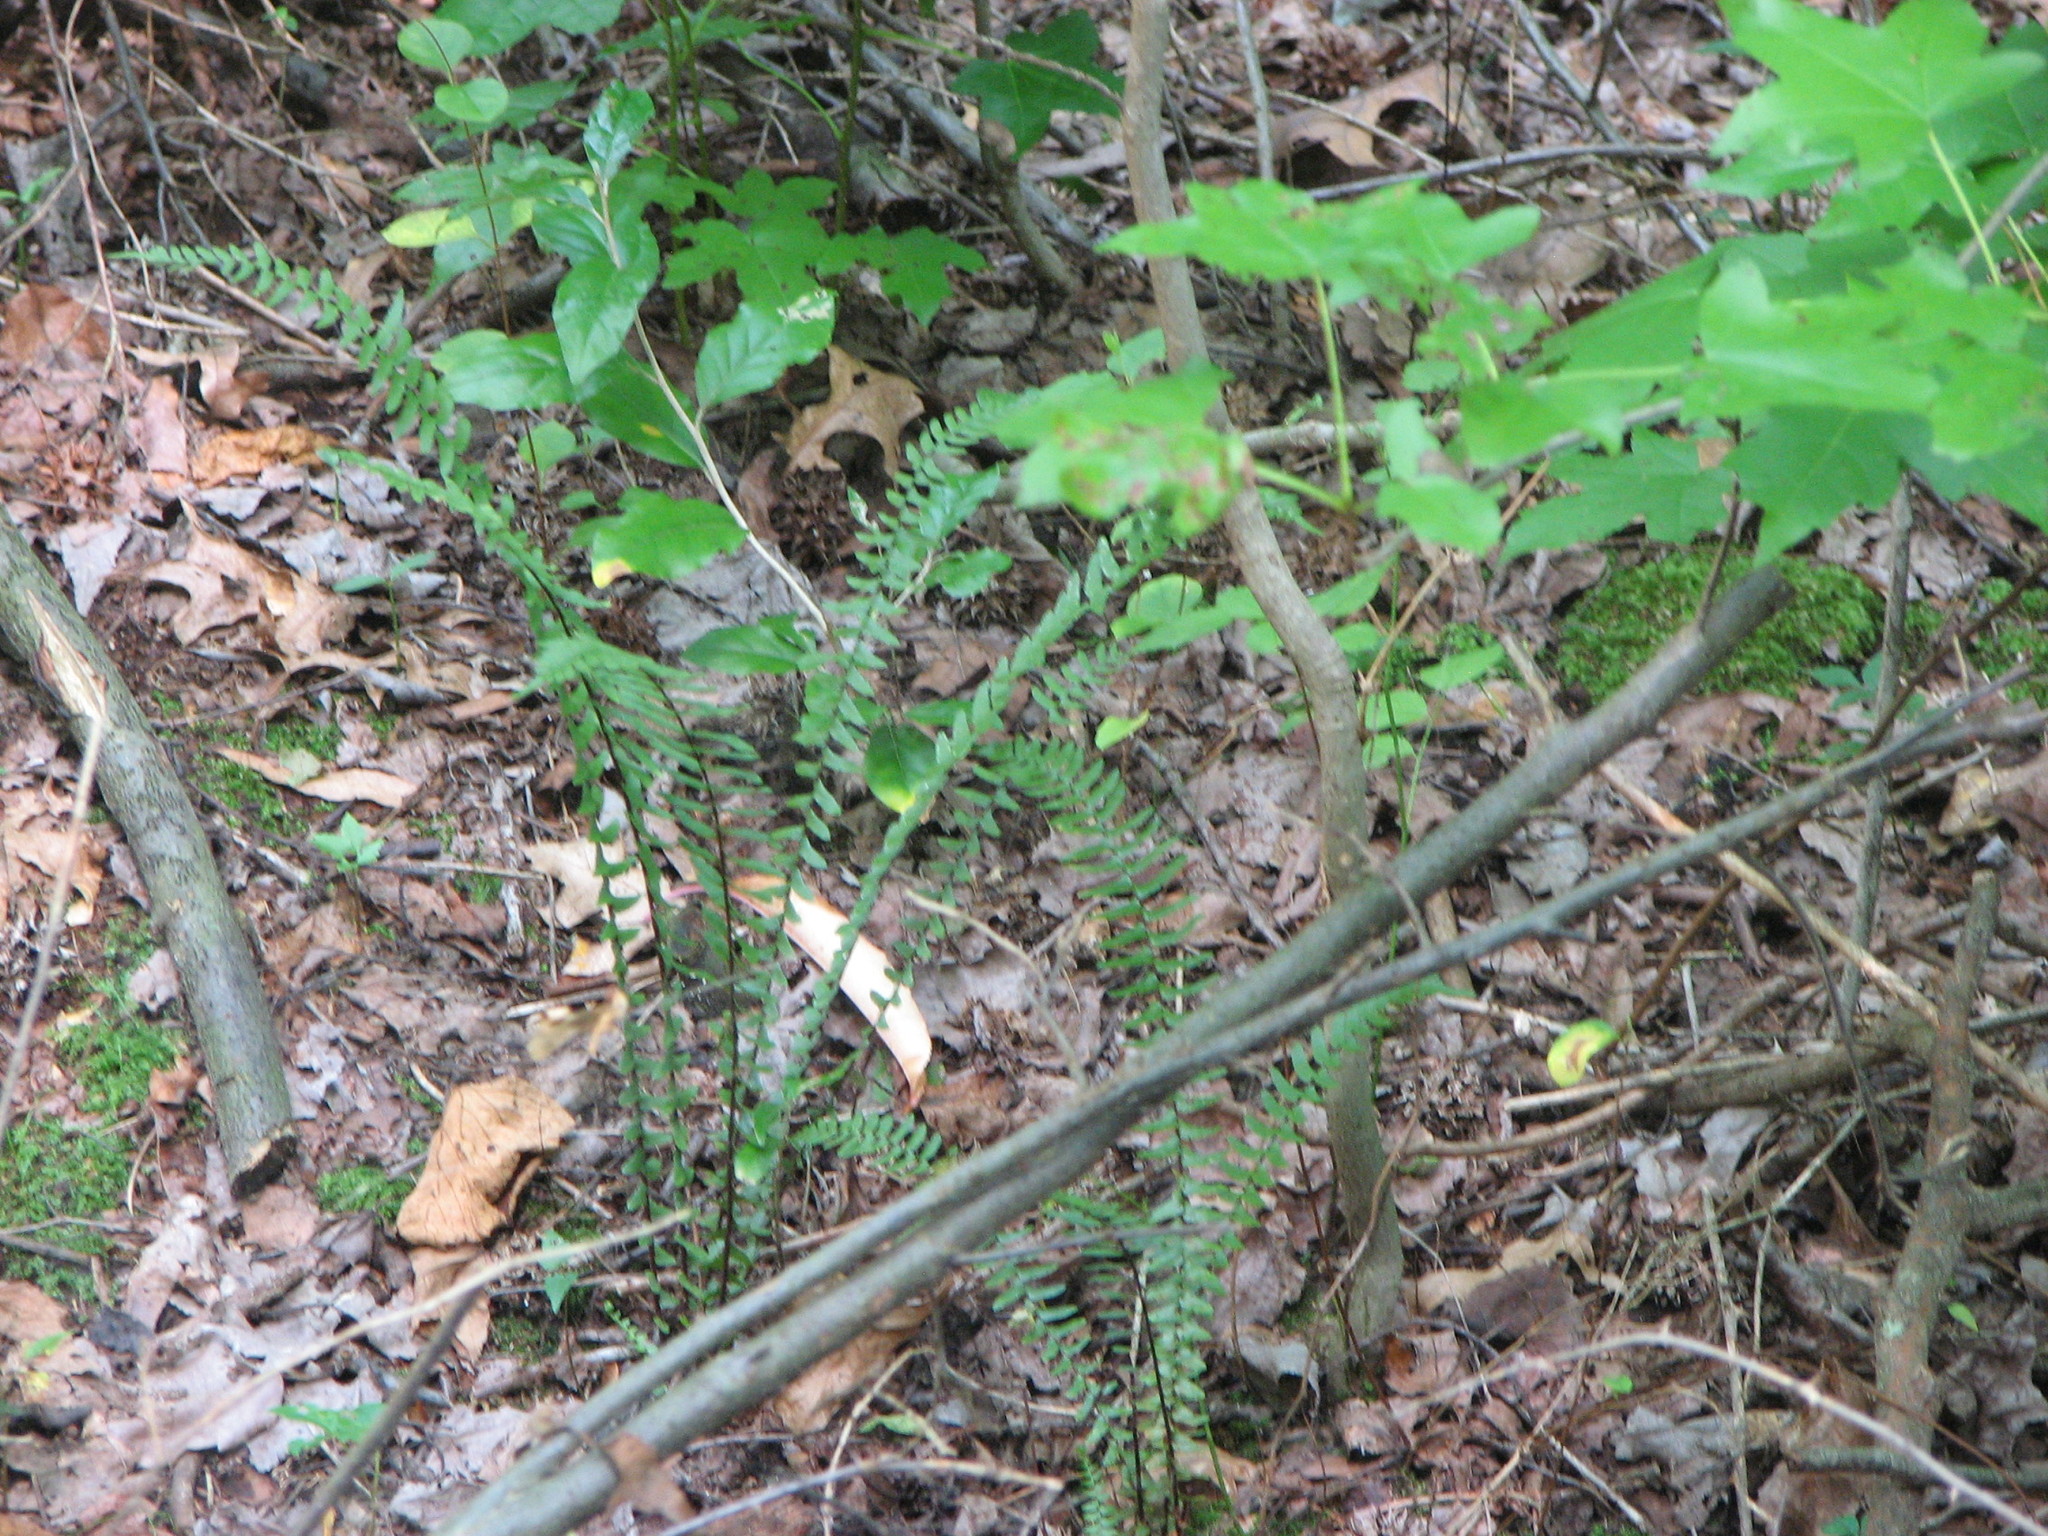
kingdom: Plantae
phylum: Tracheophyta
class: Polypodiopsida
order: Polypodiales
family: Aspleniaceae
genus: Asplenium
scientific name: Asplenium platyneuron
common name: Ebony spleenwort
